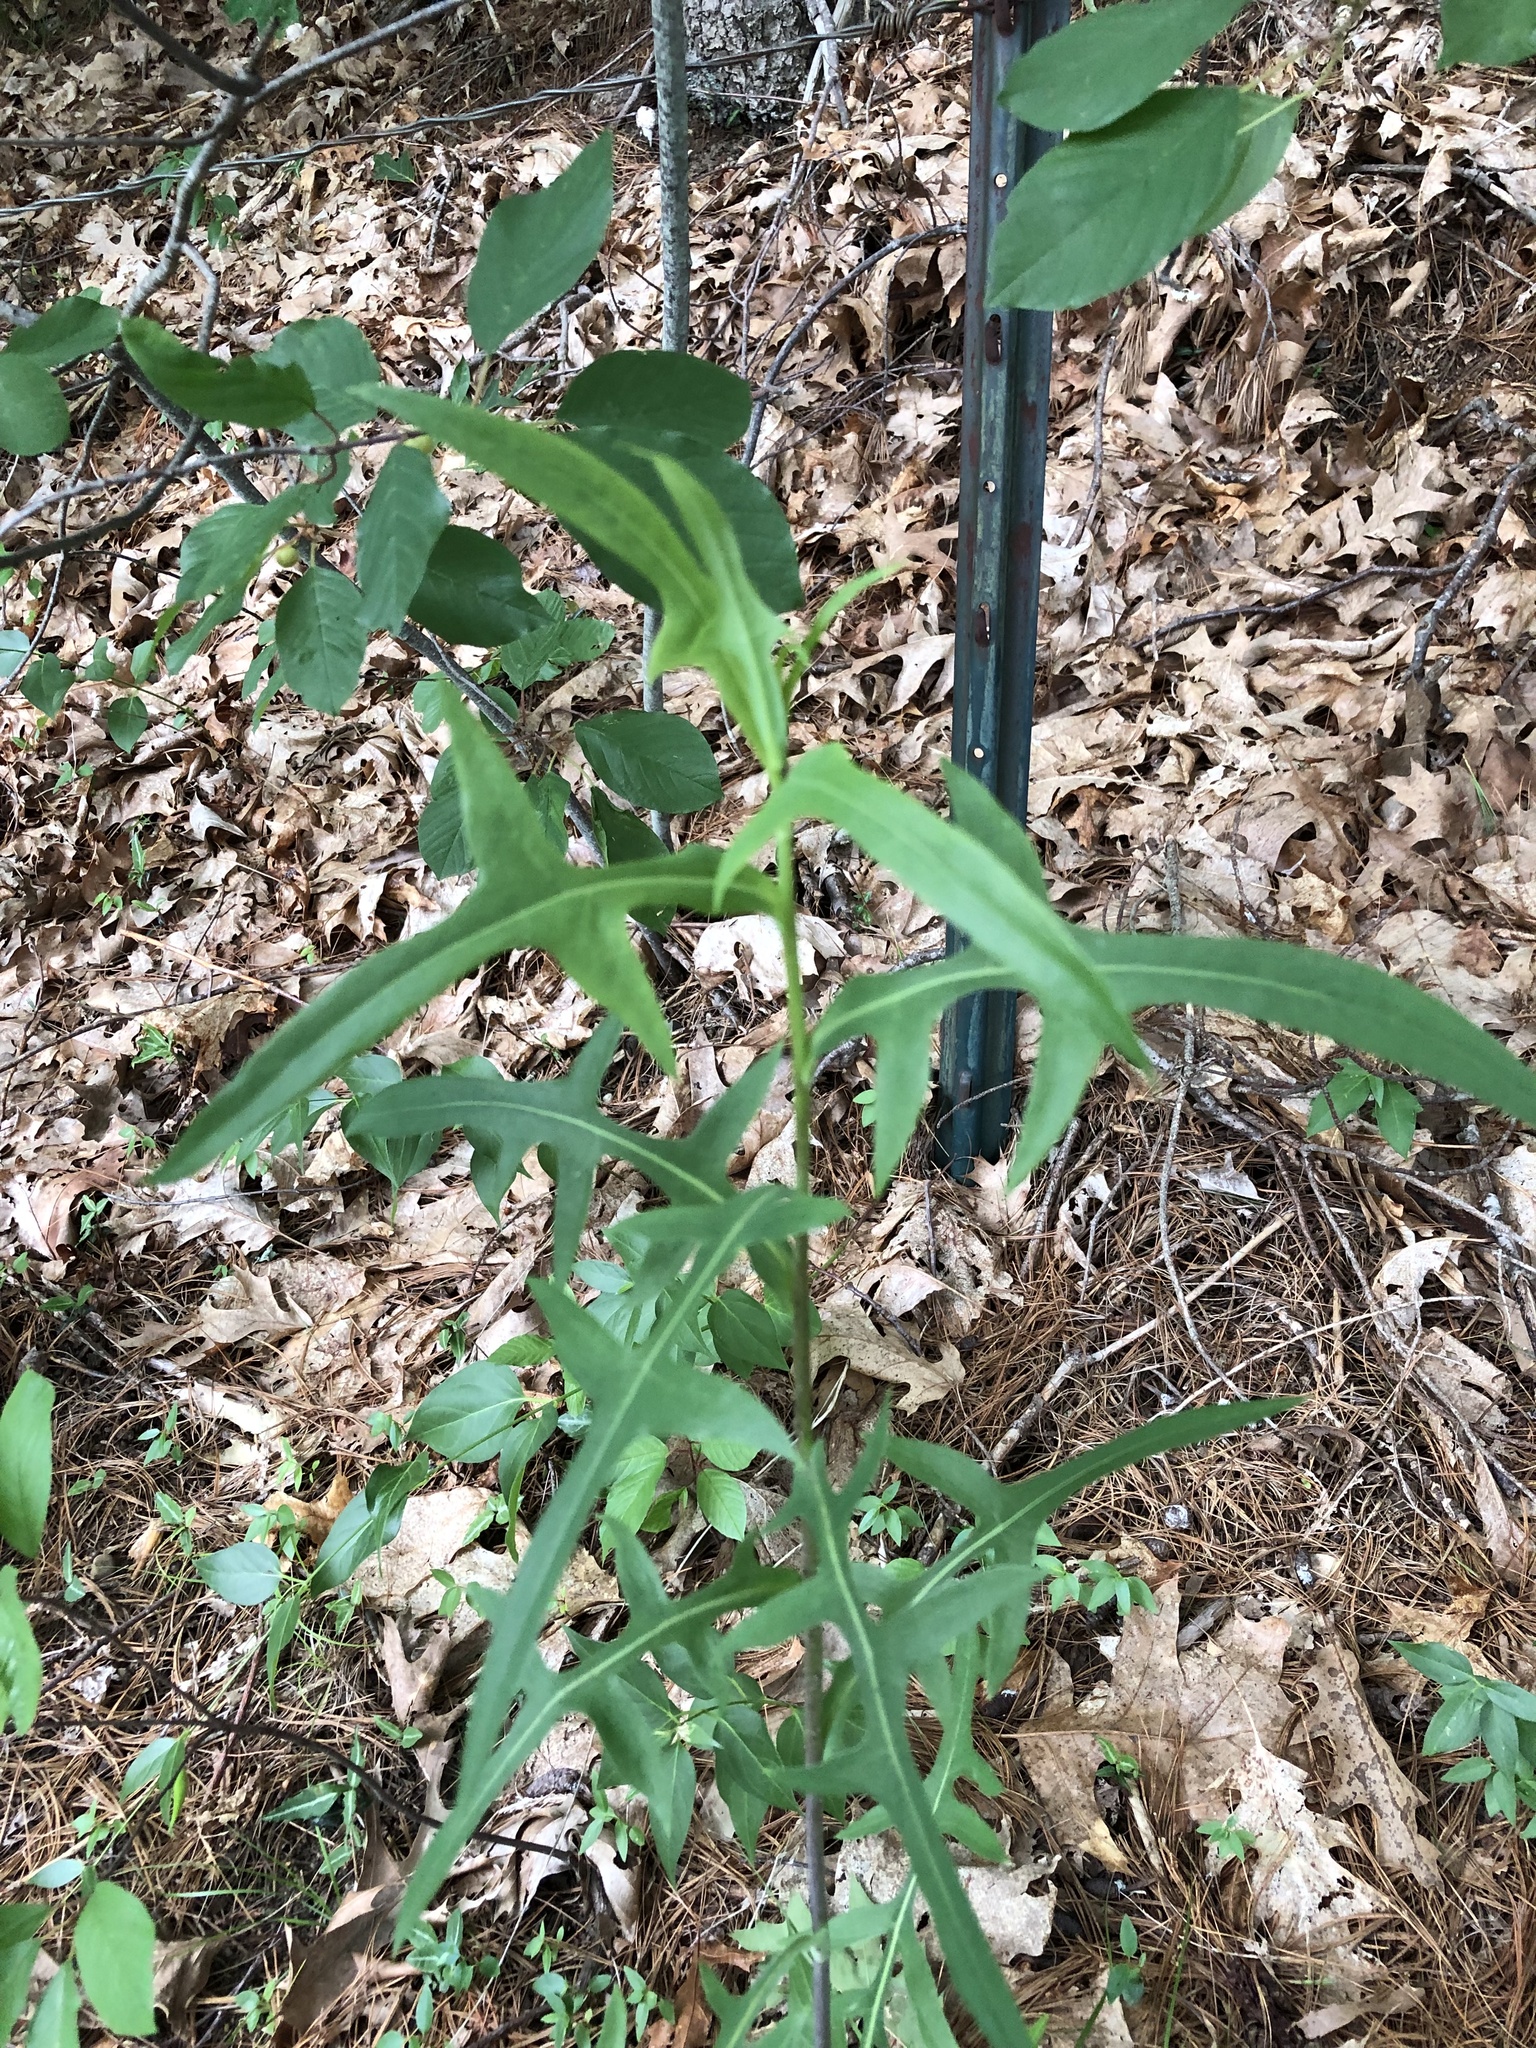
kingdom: Plantae
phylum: Tracheophyta
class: Magnoliopsida
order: Asterales
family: Asteraceae
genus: Lactuca
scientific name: Lactuca canadensis
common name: Canada lettuce
